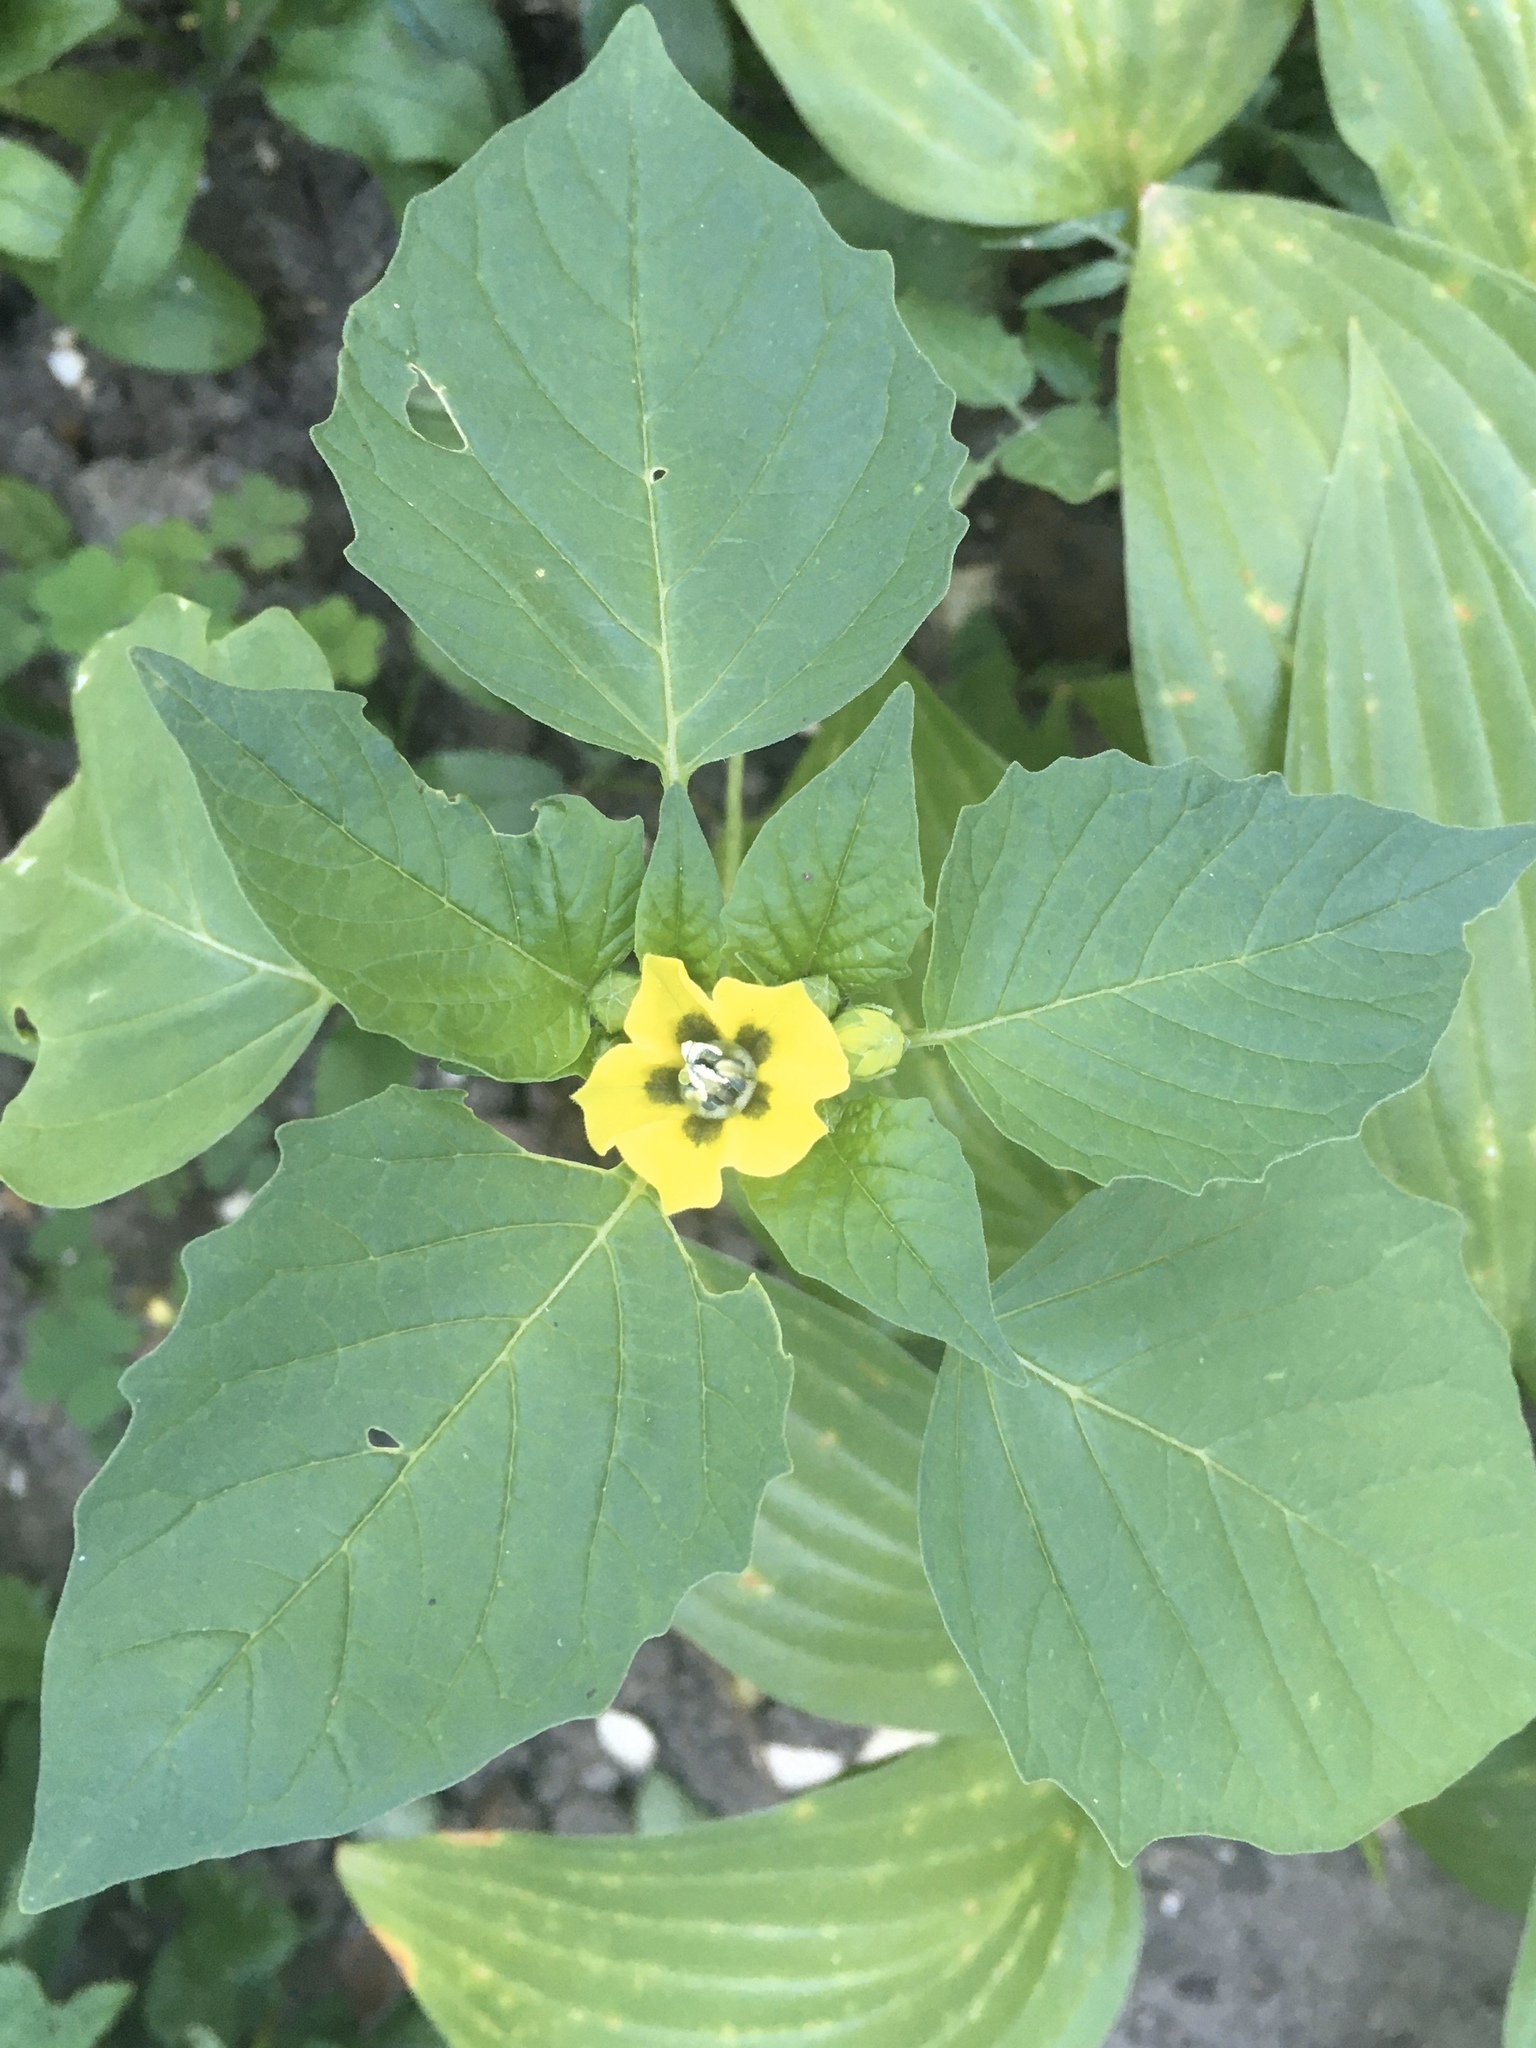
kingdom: Plantae
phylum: Tracheophyta
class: Magnoliopsida
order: Solanales
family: Solanaceae
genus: Physalis
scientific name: Physalis philadelphica
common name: Husk-tomato
